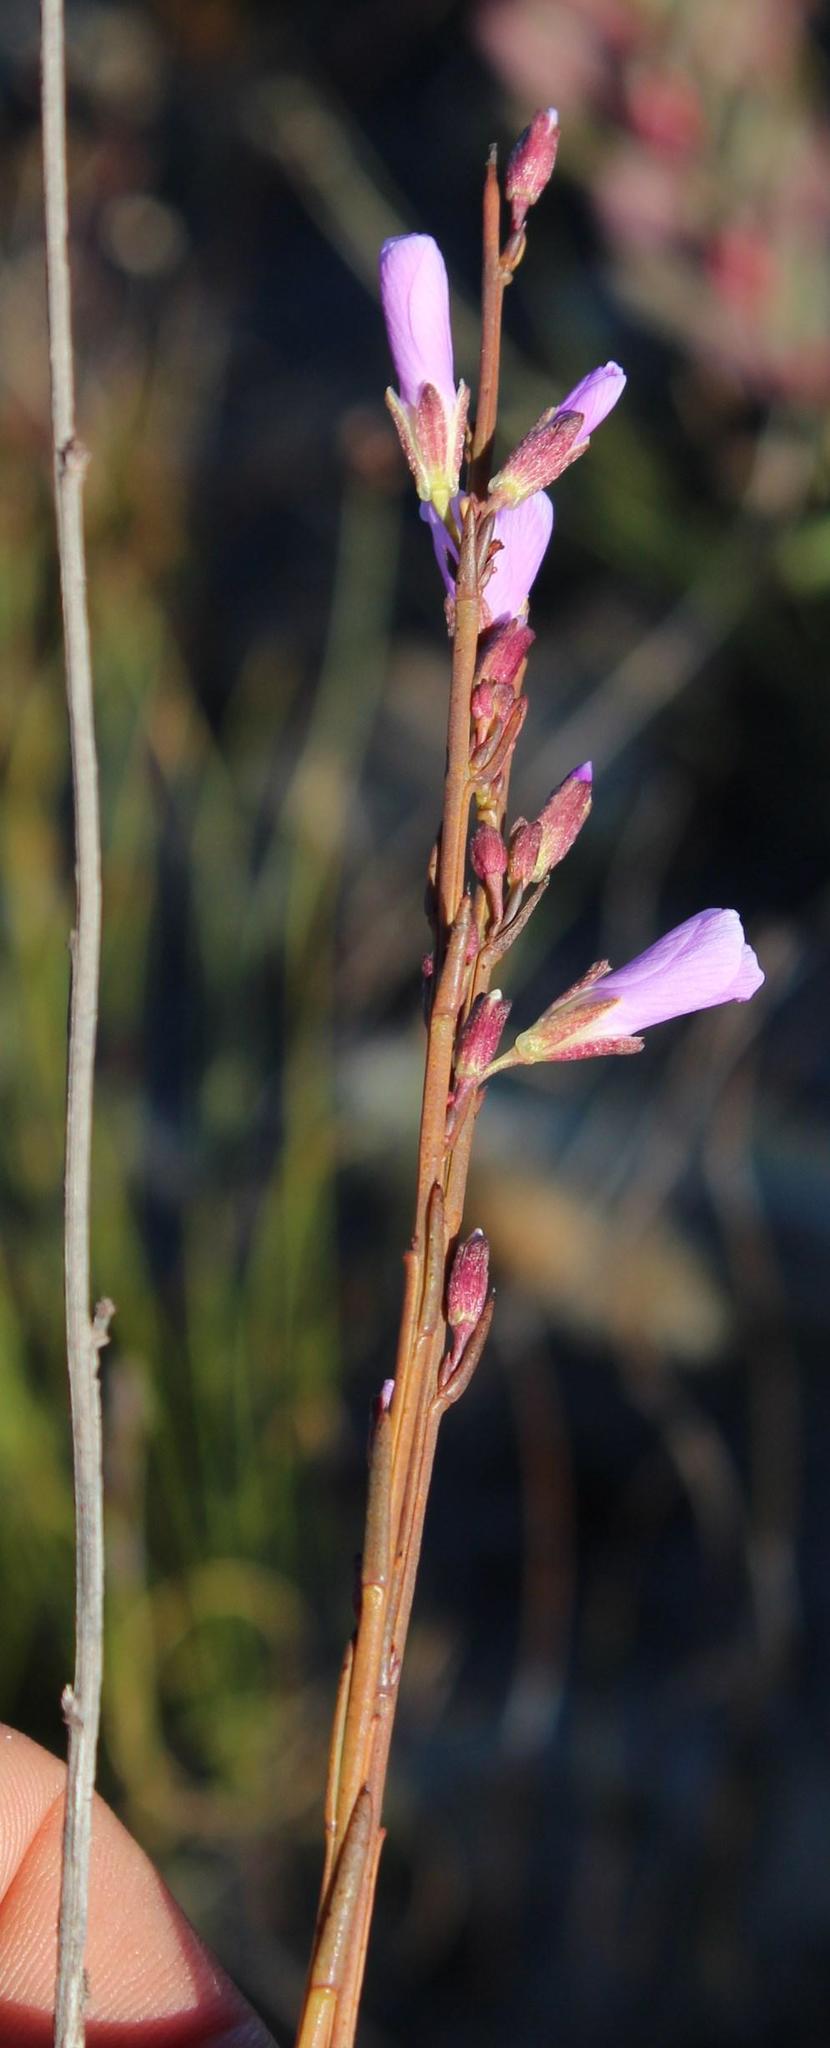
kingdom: Plantae
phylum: Tracheophyta
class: Magnoliopsida
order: Brassicales
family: Brassicaceae
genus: Heliophila
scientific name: Heliophila scoparia
